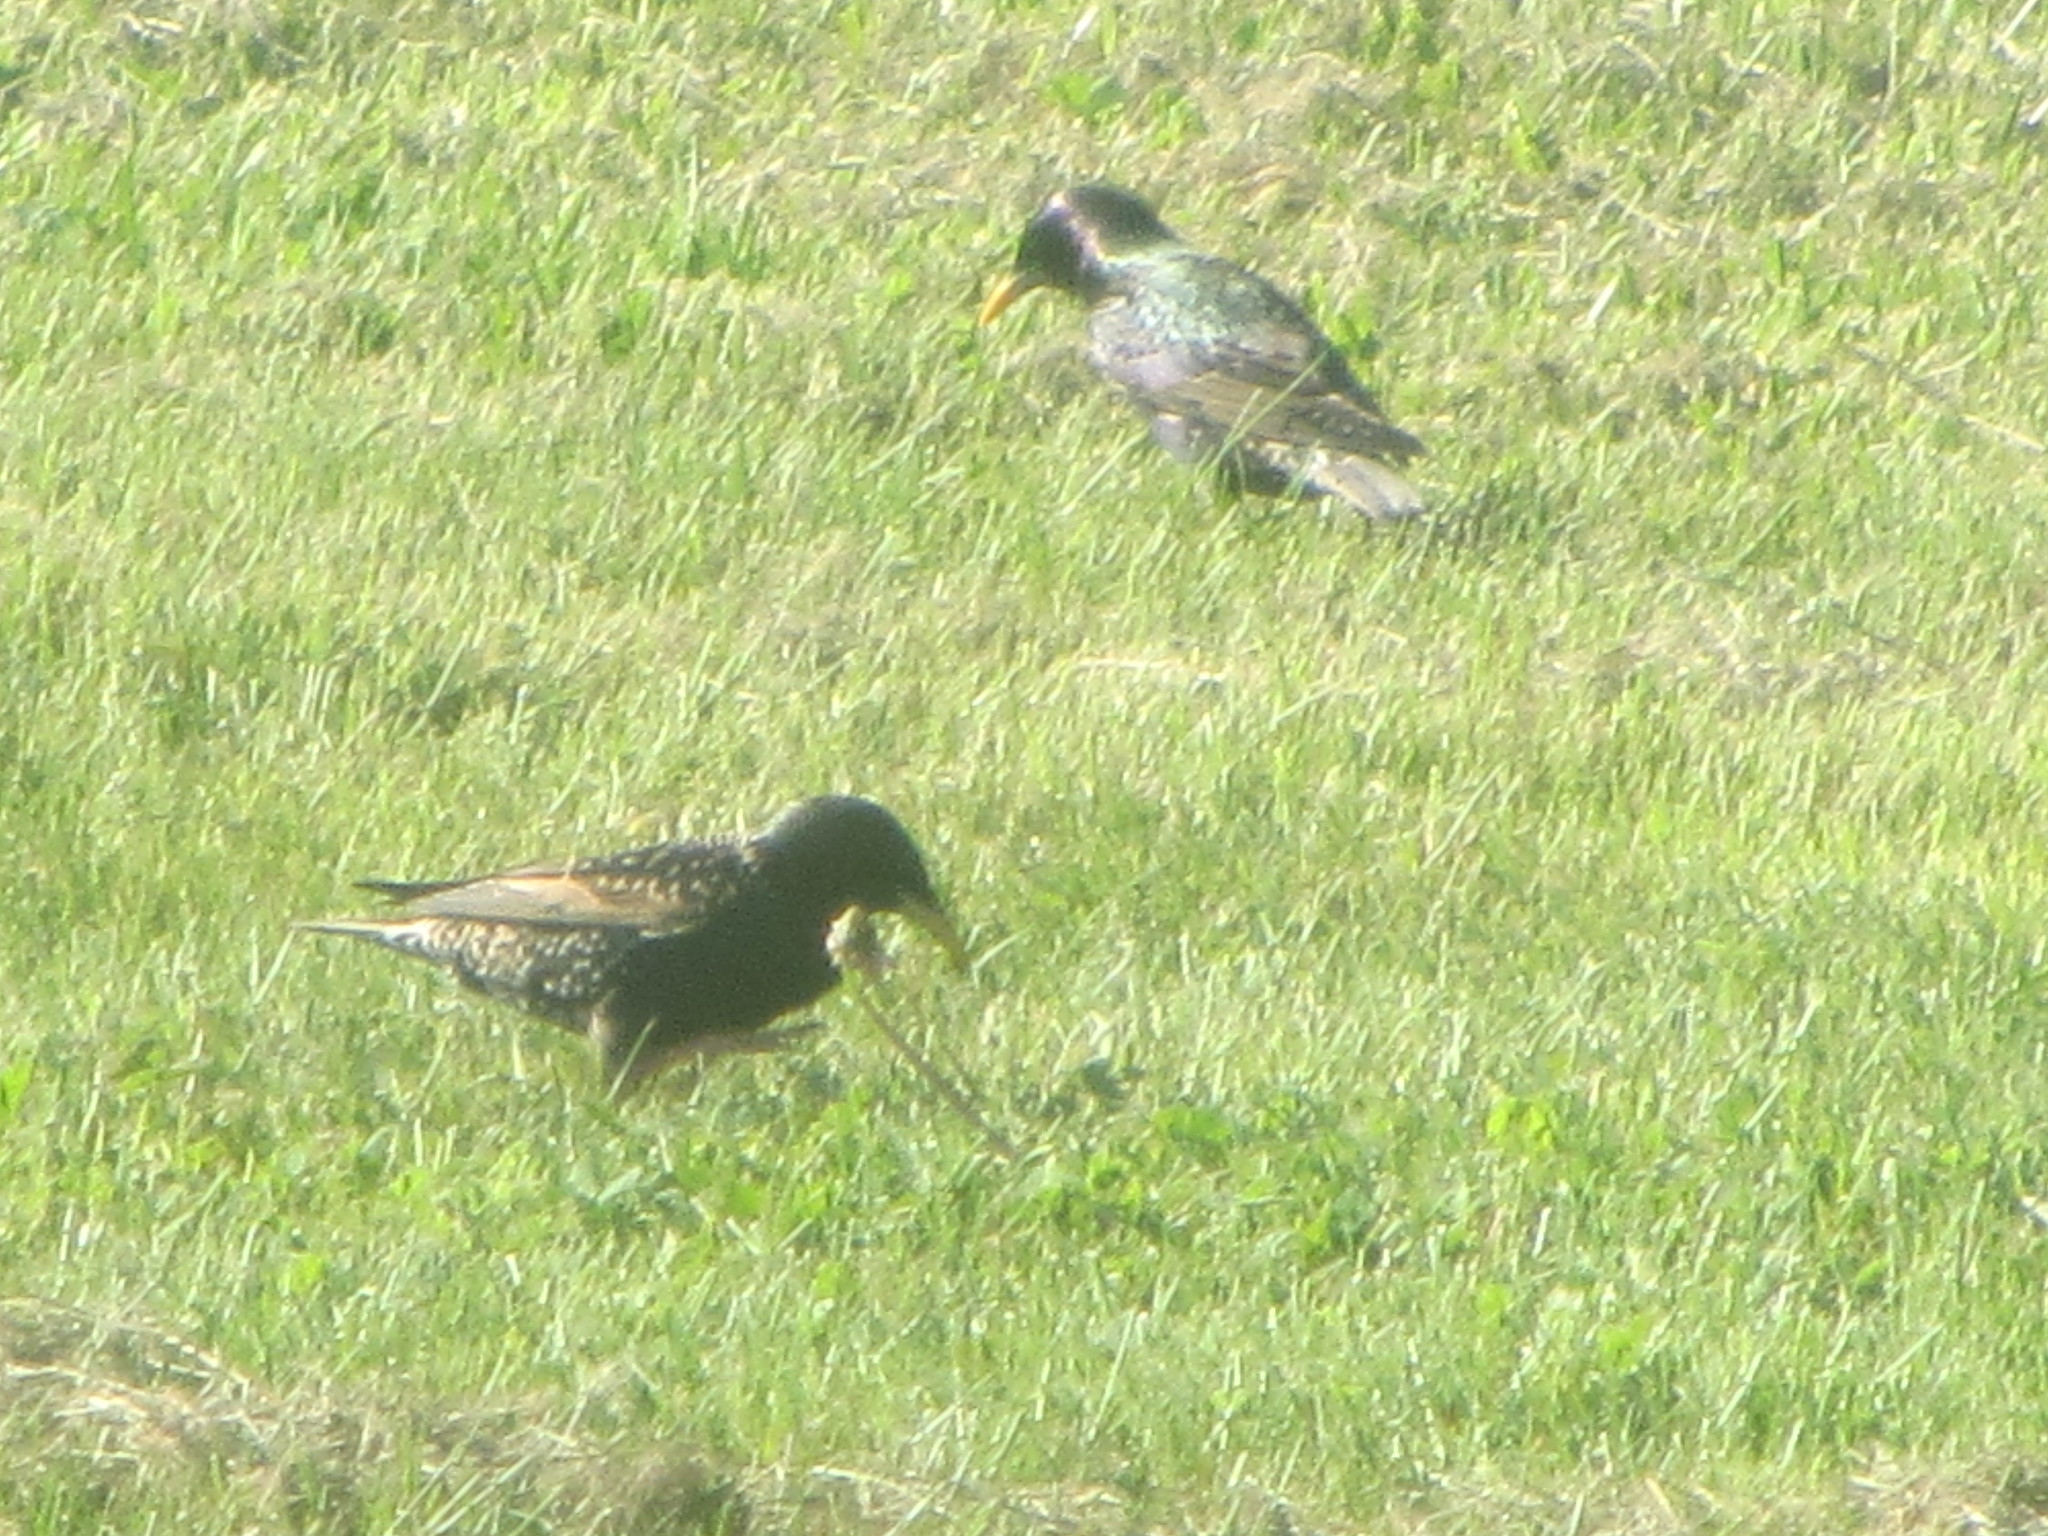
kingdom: Animalia
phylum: Chordata
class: Aves
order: Passeriformes
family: Sturnidae
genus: Sturnus
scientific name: Sturnus vulgaris
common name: Common starling
